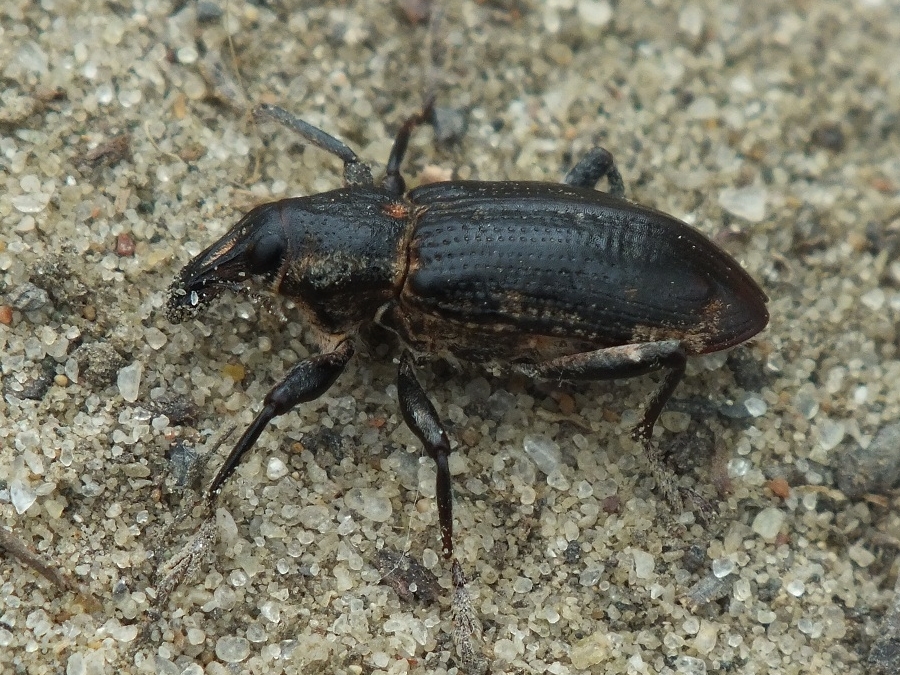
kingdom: Animalia
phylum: Arthropoda
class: Insecta
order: Coleoptera
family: Curculionidae
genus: Asproparthenis
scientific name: Asproparthenis punctiventris
